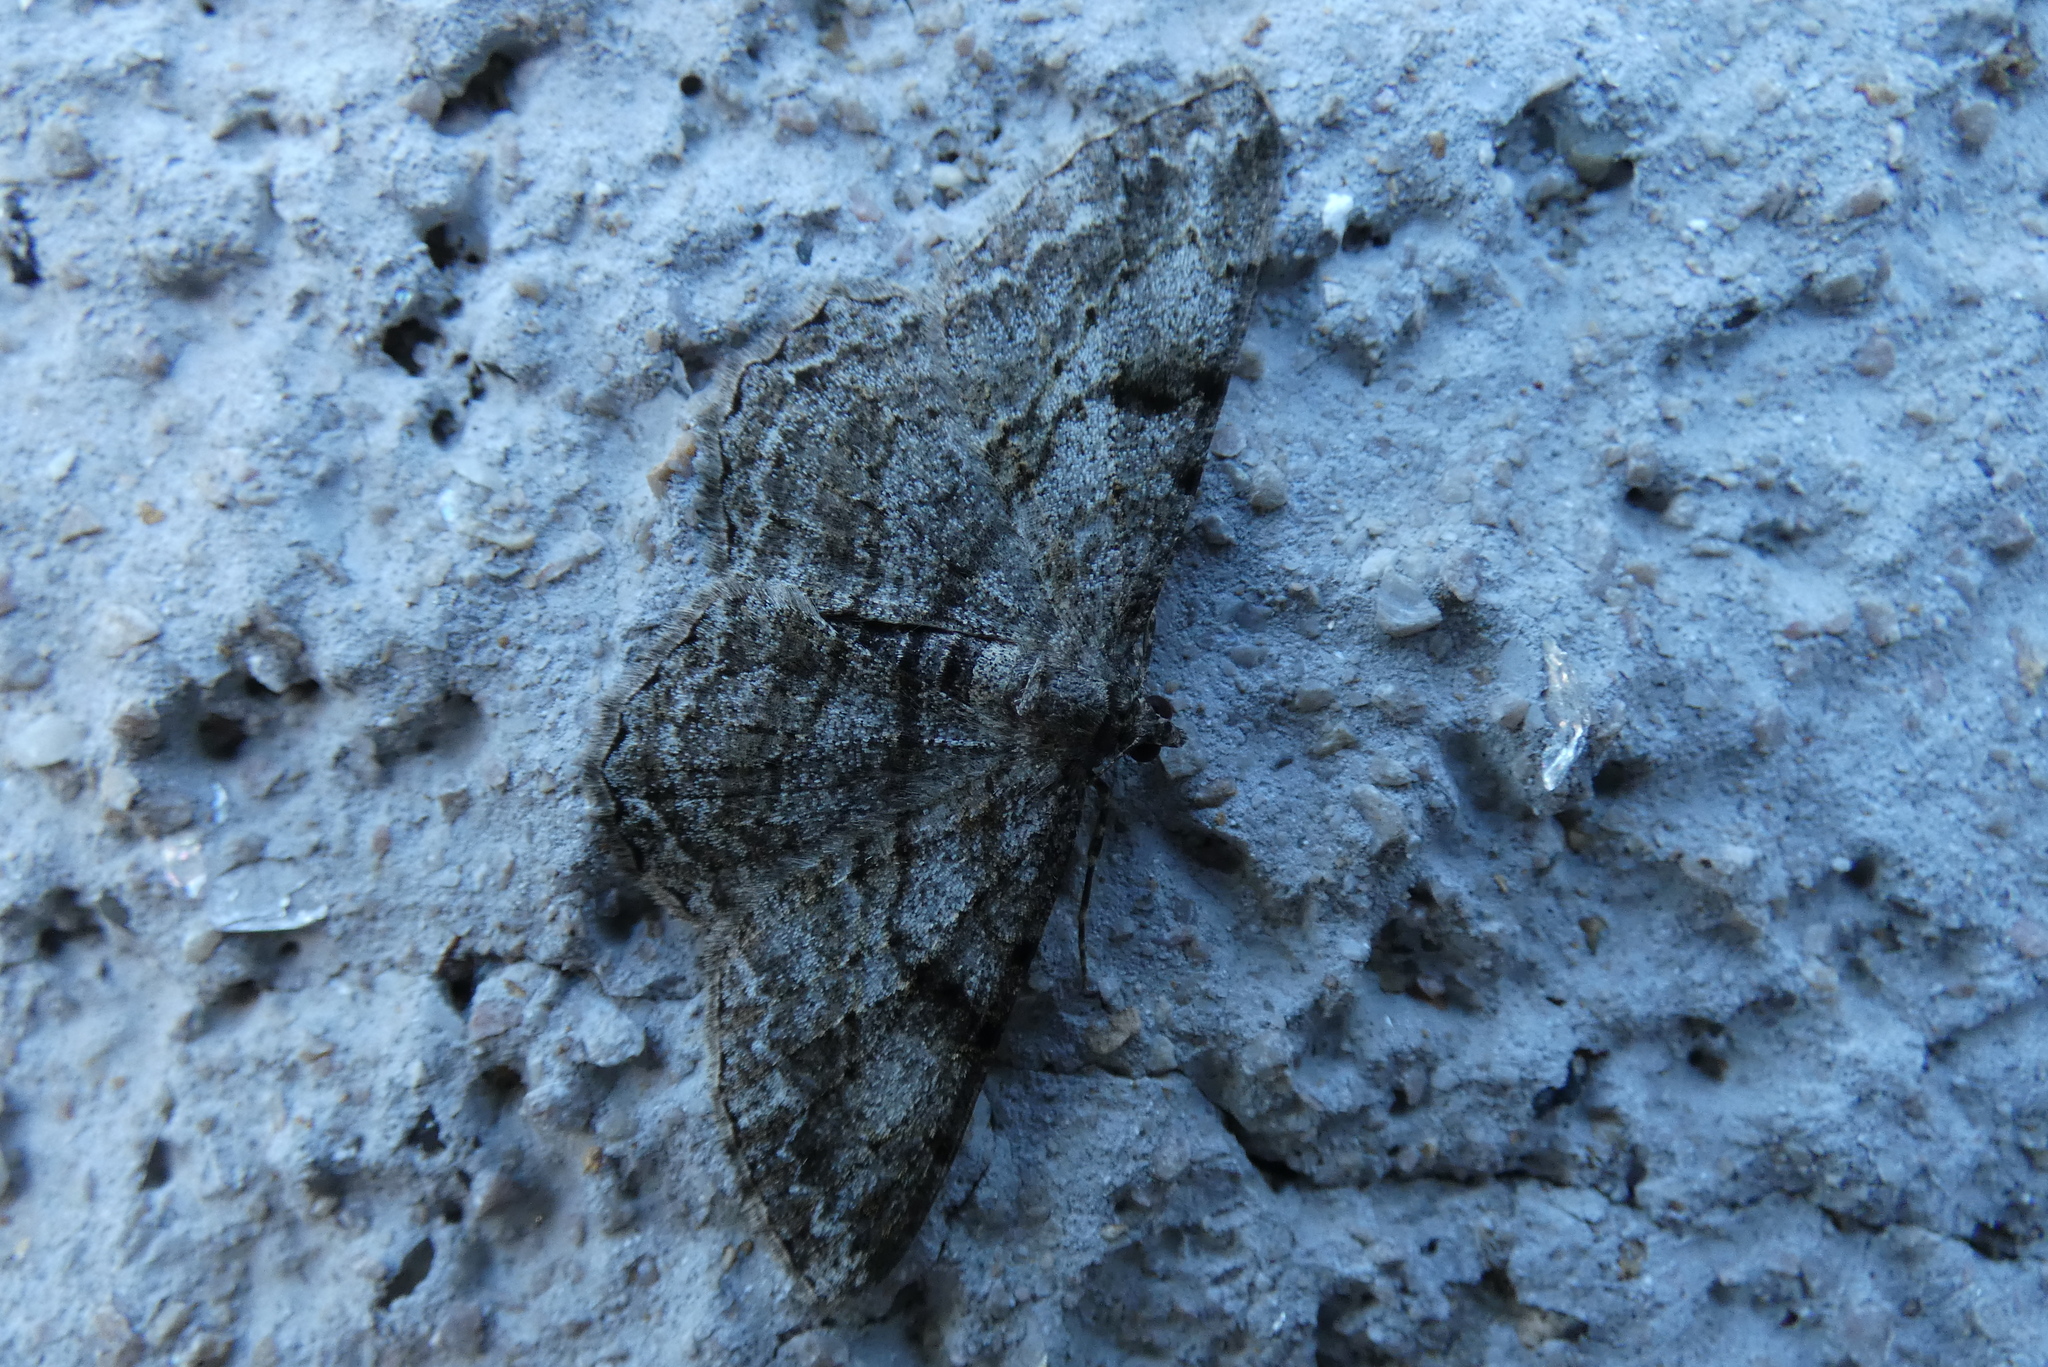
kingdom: Animalia
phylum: Arthropoda
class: Insecta
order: Lepidoptera
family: Geometridae
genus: Peribatodes
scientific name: Peribatodes rhomboidaria
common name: Willow beauty
